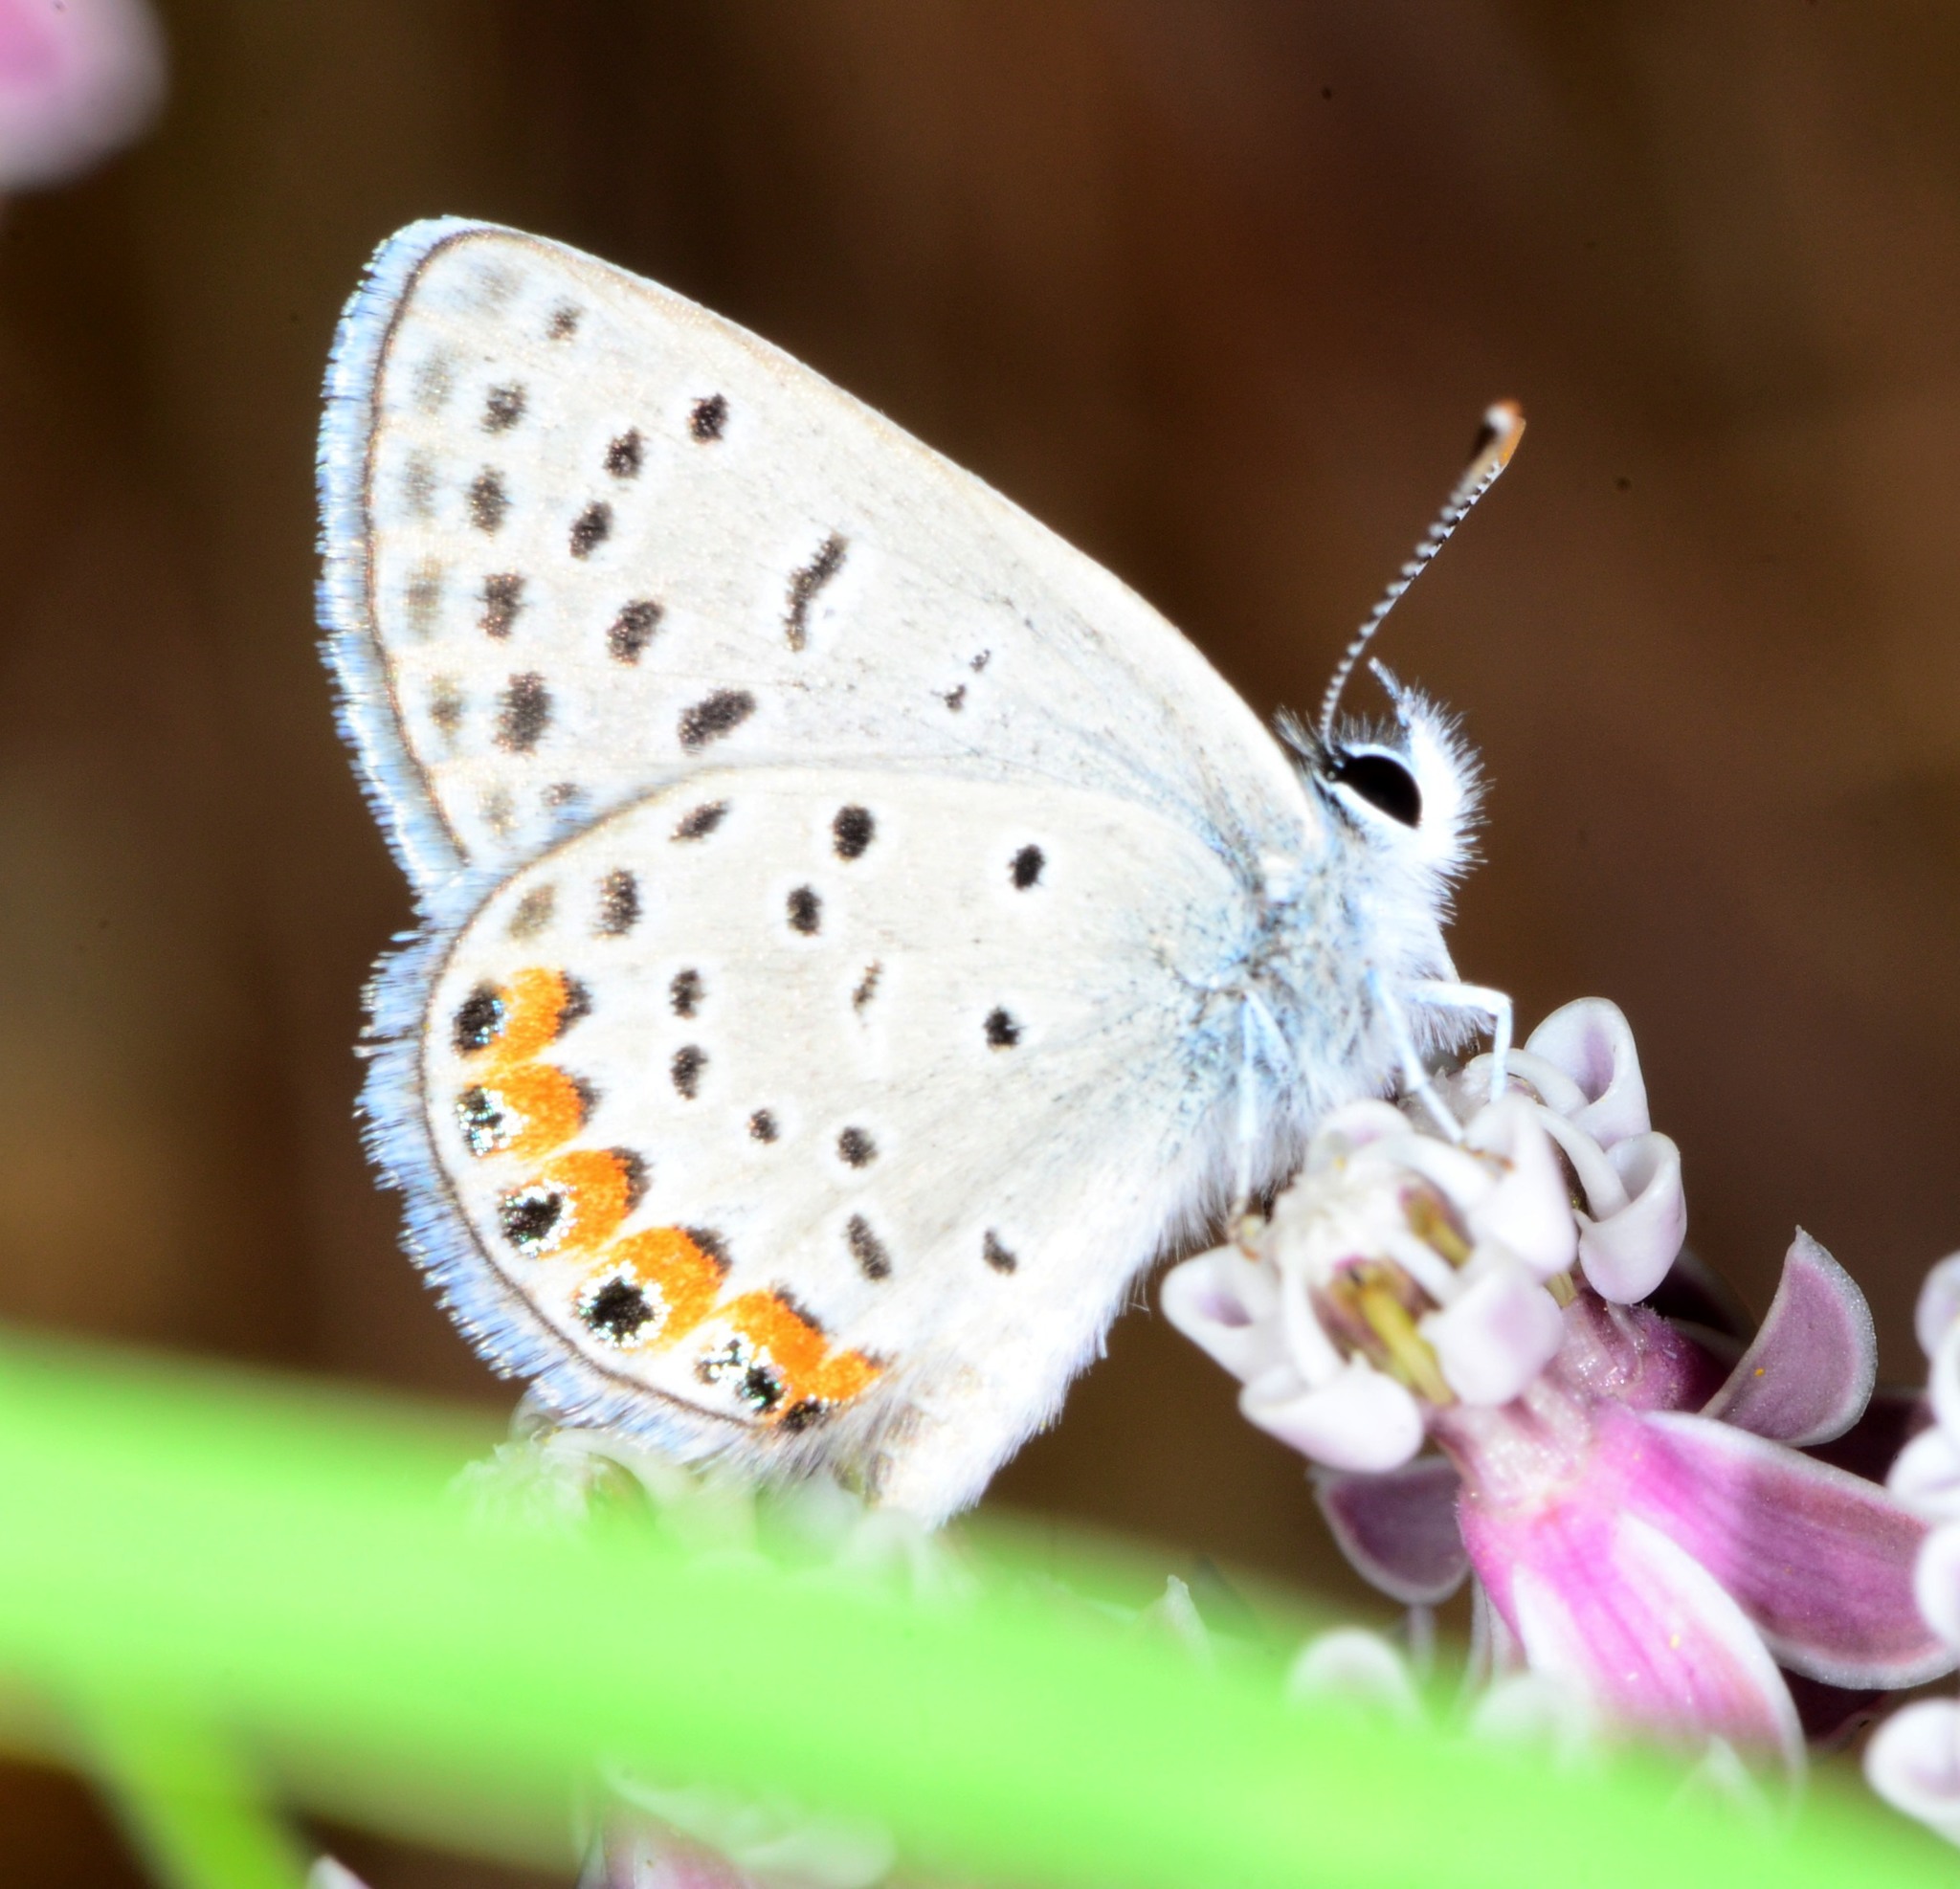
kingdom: Animalia
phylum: Arthropoda
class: Insecta
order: Lepidoptera
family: Lycaenidae
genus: Icaricia
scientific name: Icaricia acmon
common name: Acmon blue
